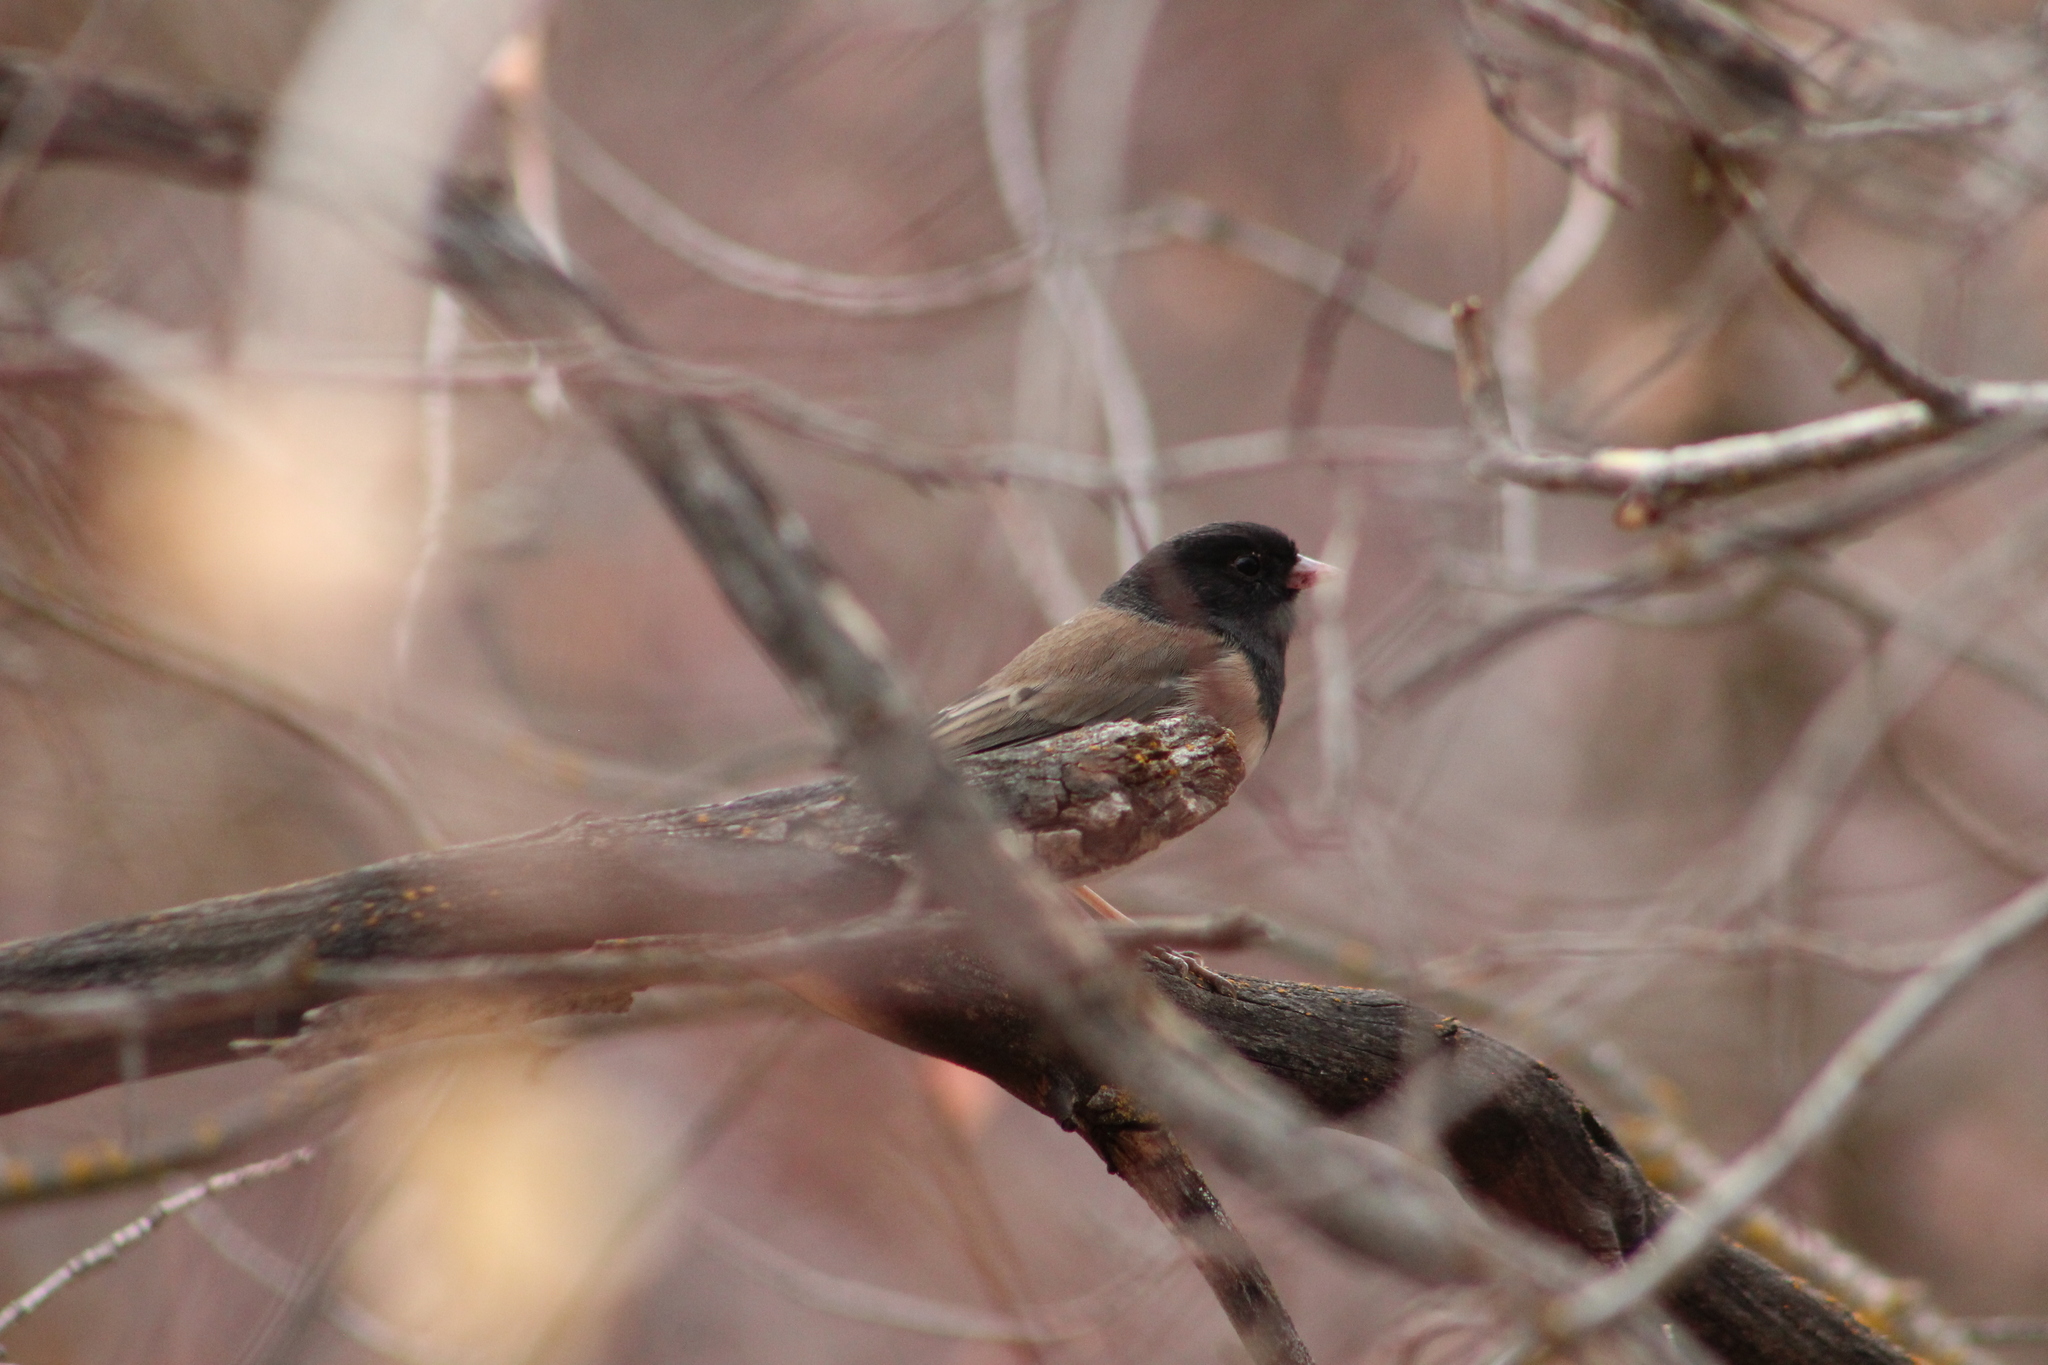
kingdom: Animalia
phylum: Chordata
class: Aves
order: Passeriformes
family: Passerellidae
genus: Junco
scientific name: Junco hyemalis
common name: Dark-eyed junco
